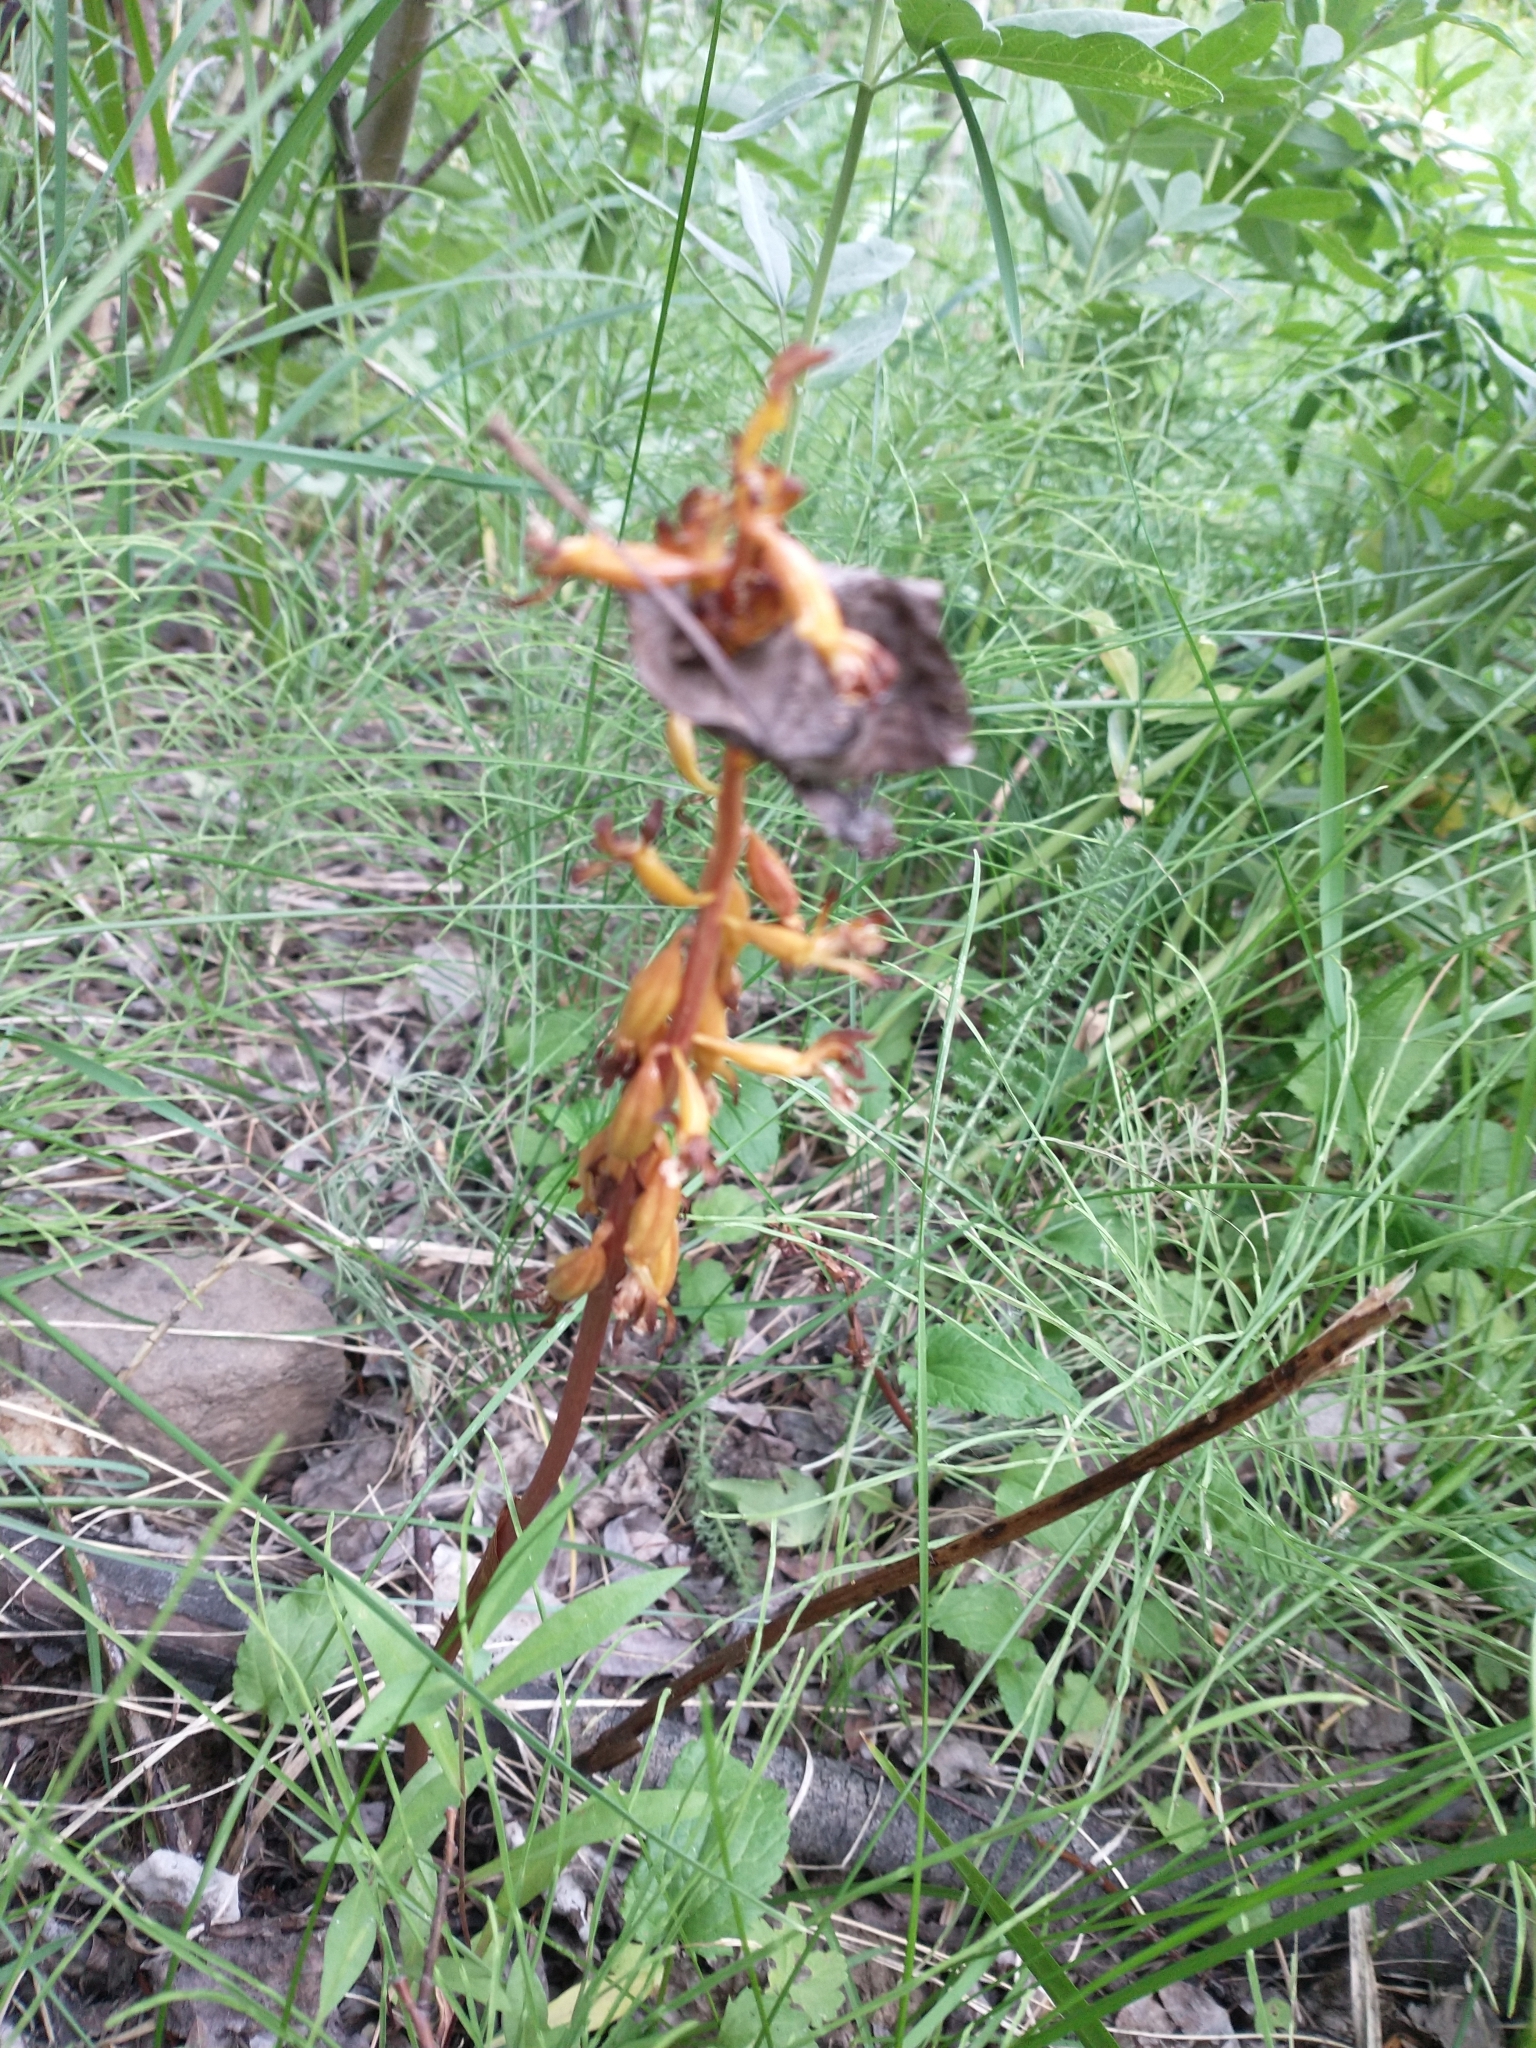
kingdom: Plantae
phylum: Tracheophyta
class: Liliopsida
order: Asparagales
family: Orchidaceae
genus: Corallorhiza
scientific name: Corallorhiza maculata
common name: Spotted coralroot
